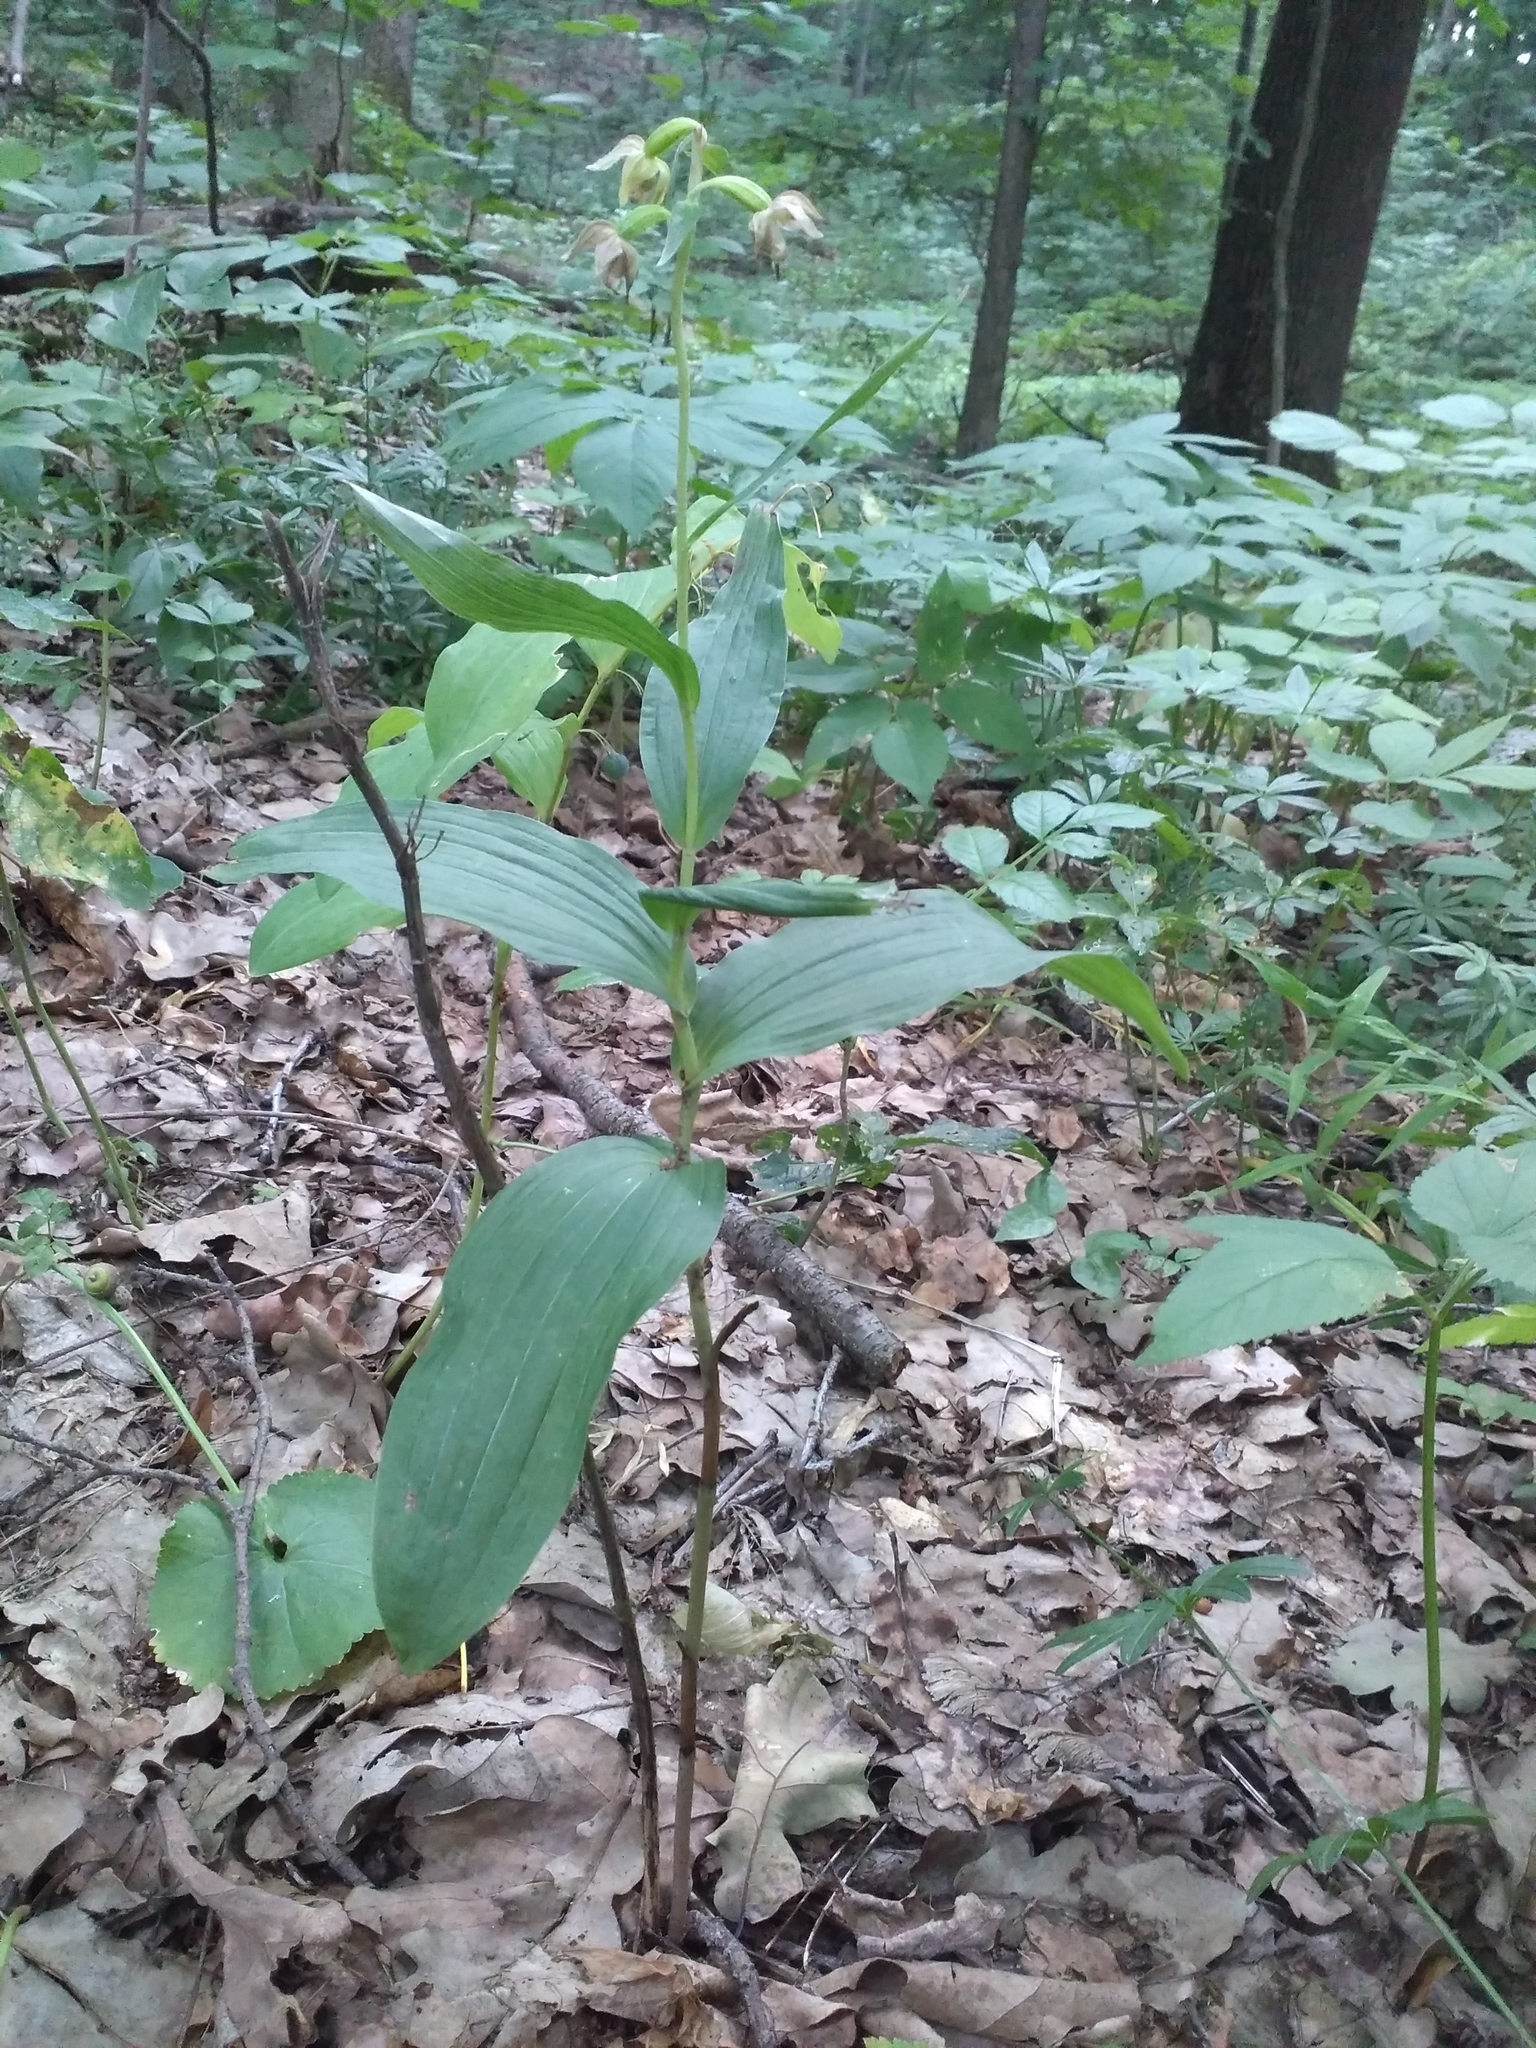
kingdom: Plantae
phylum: Tracheophyta
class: Liliopsida
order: Asparagales
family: Orchidaceae
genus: Epipactis
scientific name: Epipactis helleborine
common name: Broad-leaved helleborine
